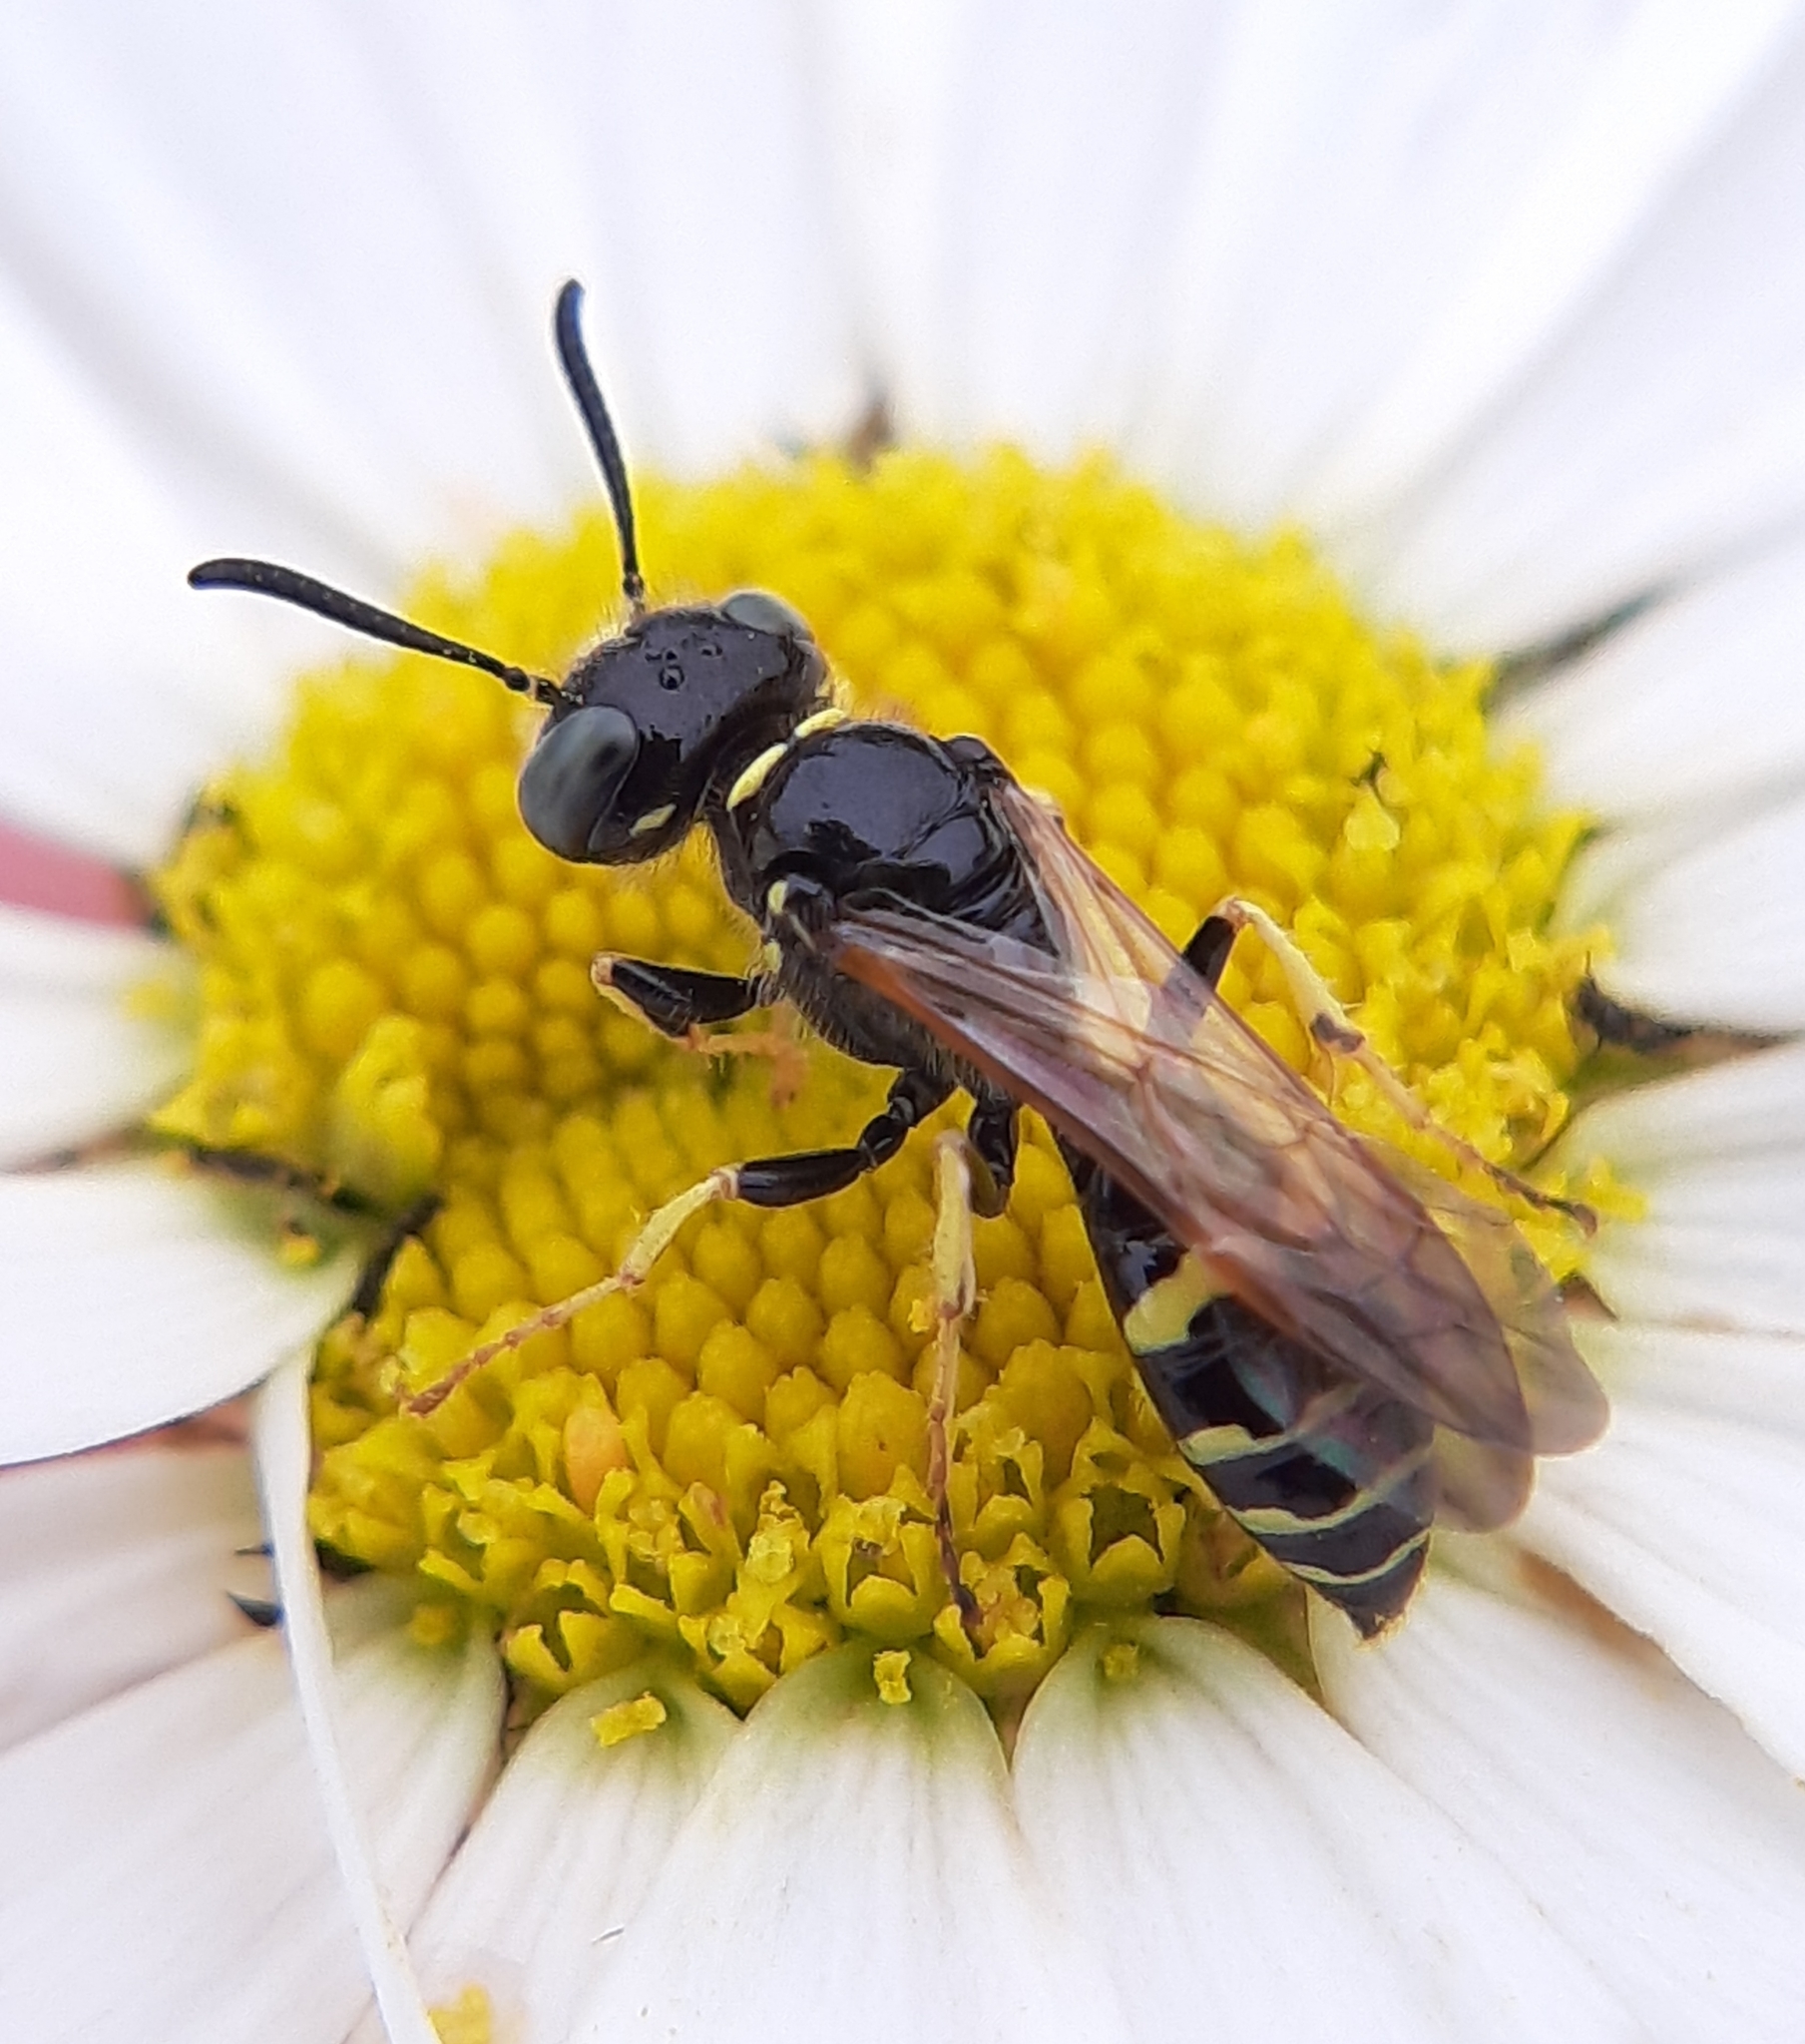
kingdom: Animalia
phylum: Arthropoda
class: Insecta
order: Hymenoptera
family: Crabronidae
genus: Philanthus
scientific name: Philanthus bilunatus
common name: Two moons beewolf
